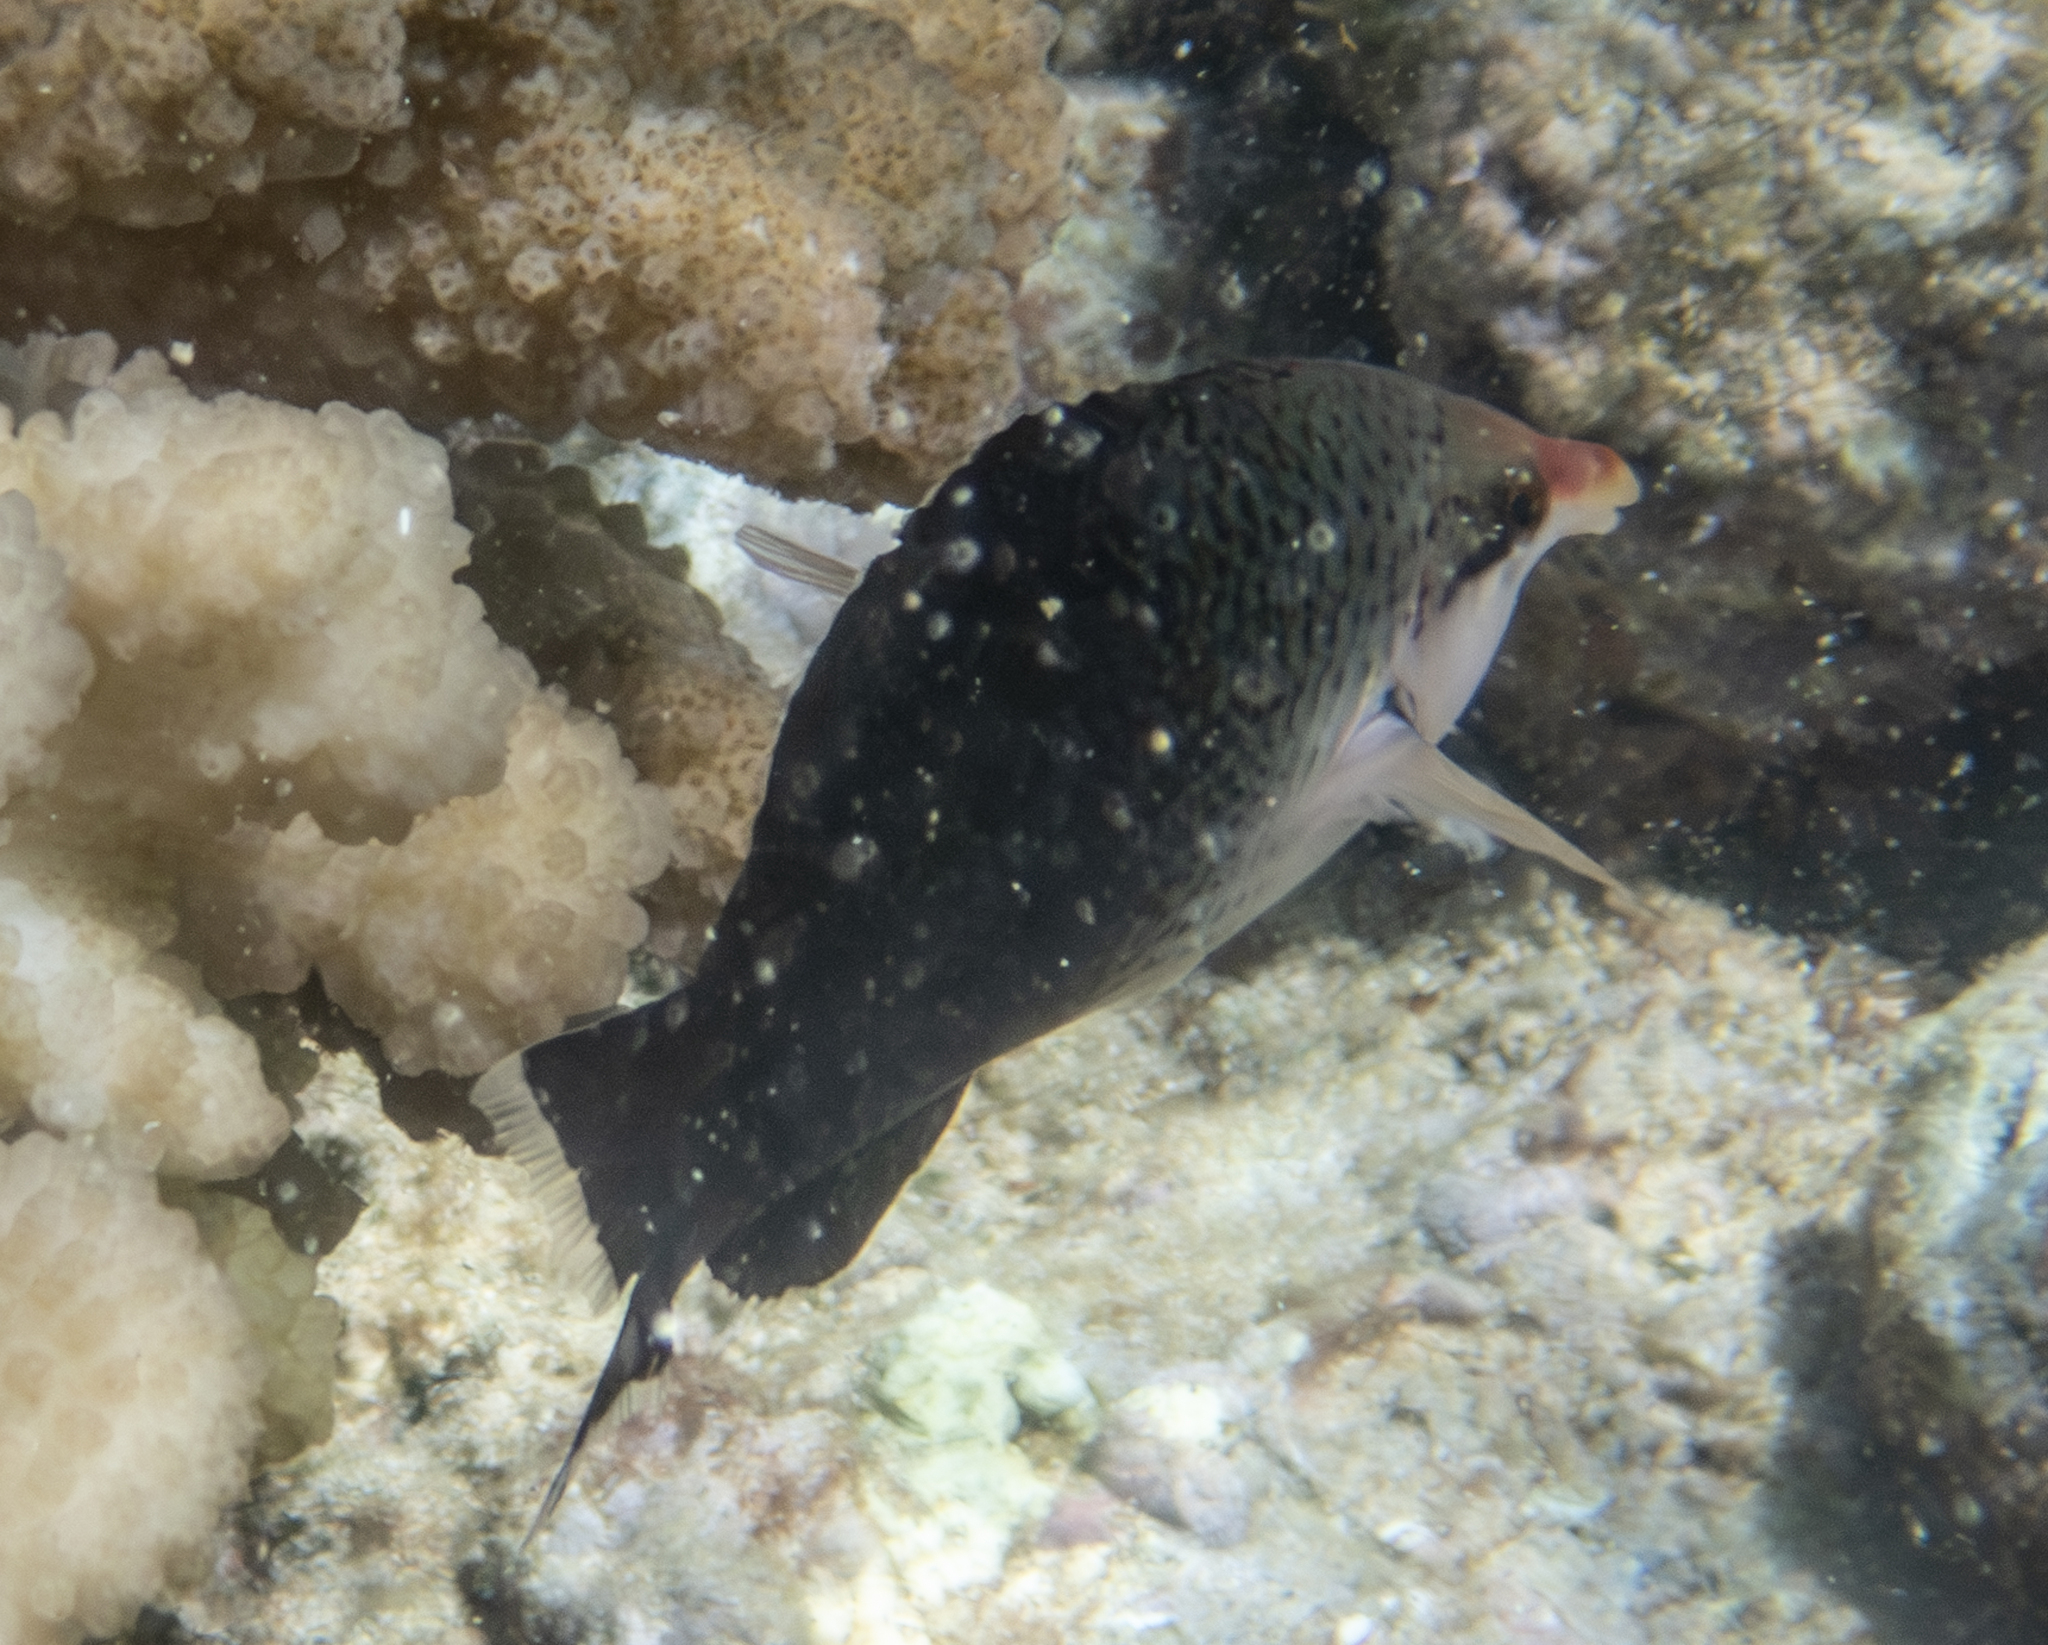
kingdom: Animalia
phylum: Chordata
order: Perciformes
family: Labridae
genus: Gomphosus
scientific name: Gomphosus varius
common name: Bird wrasse
